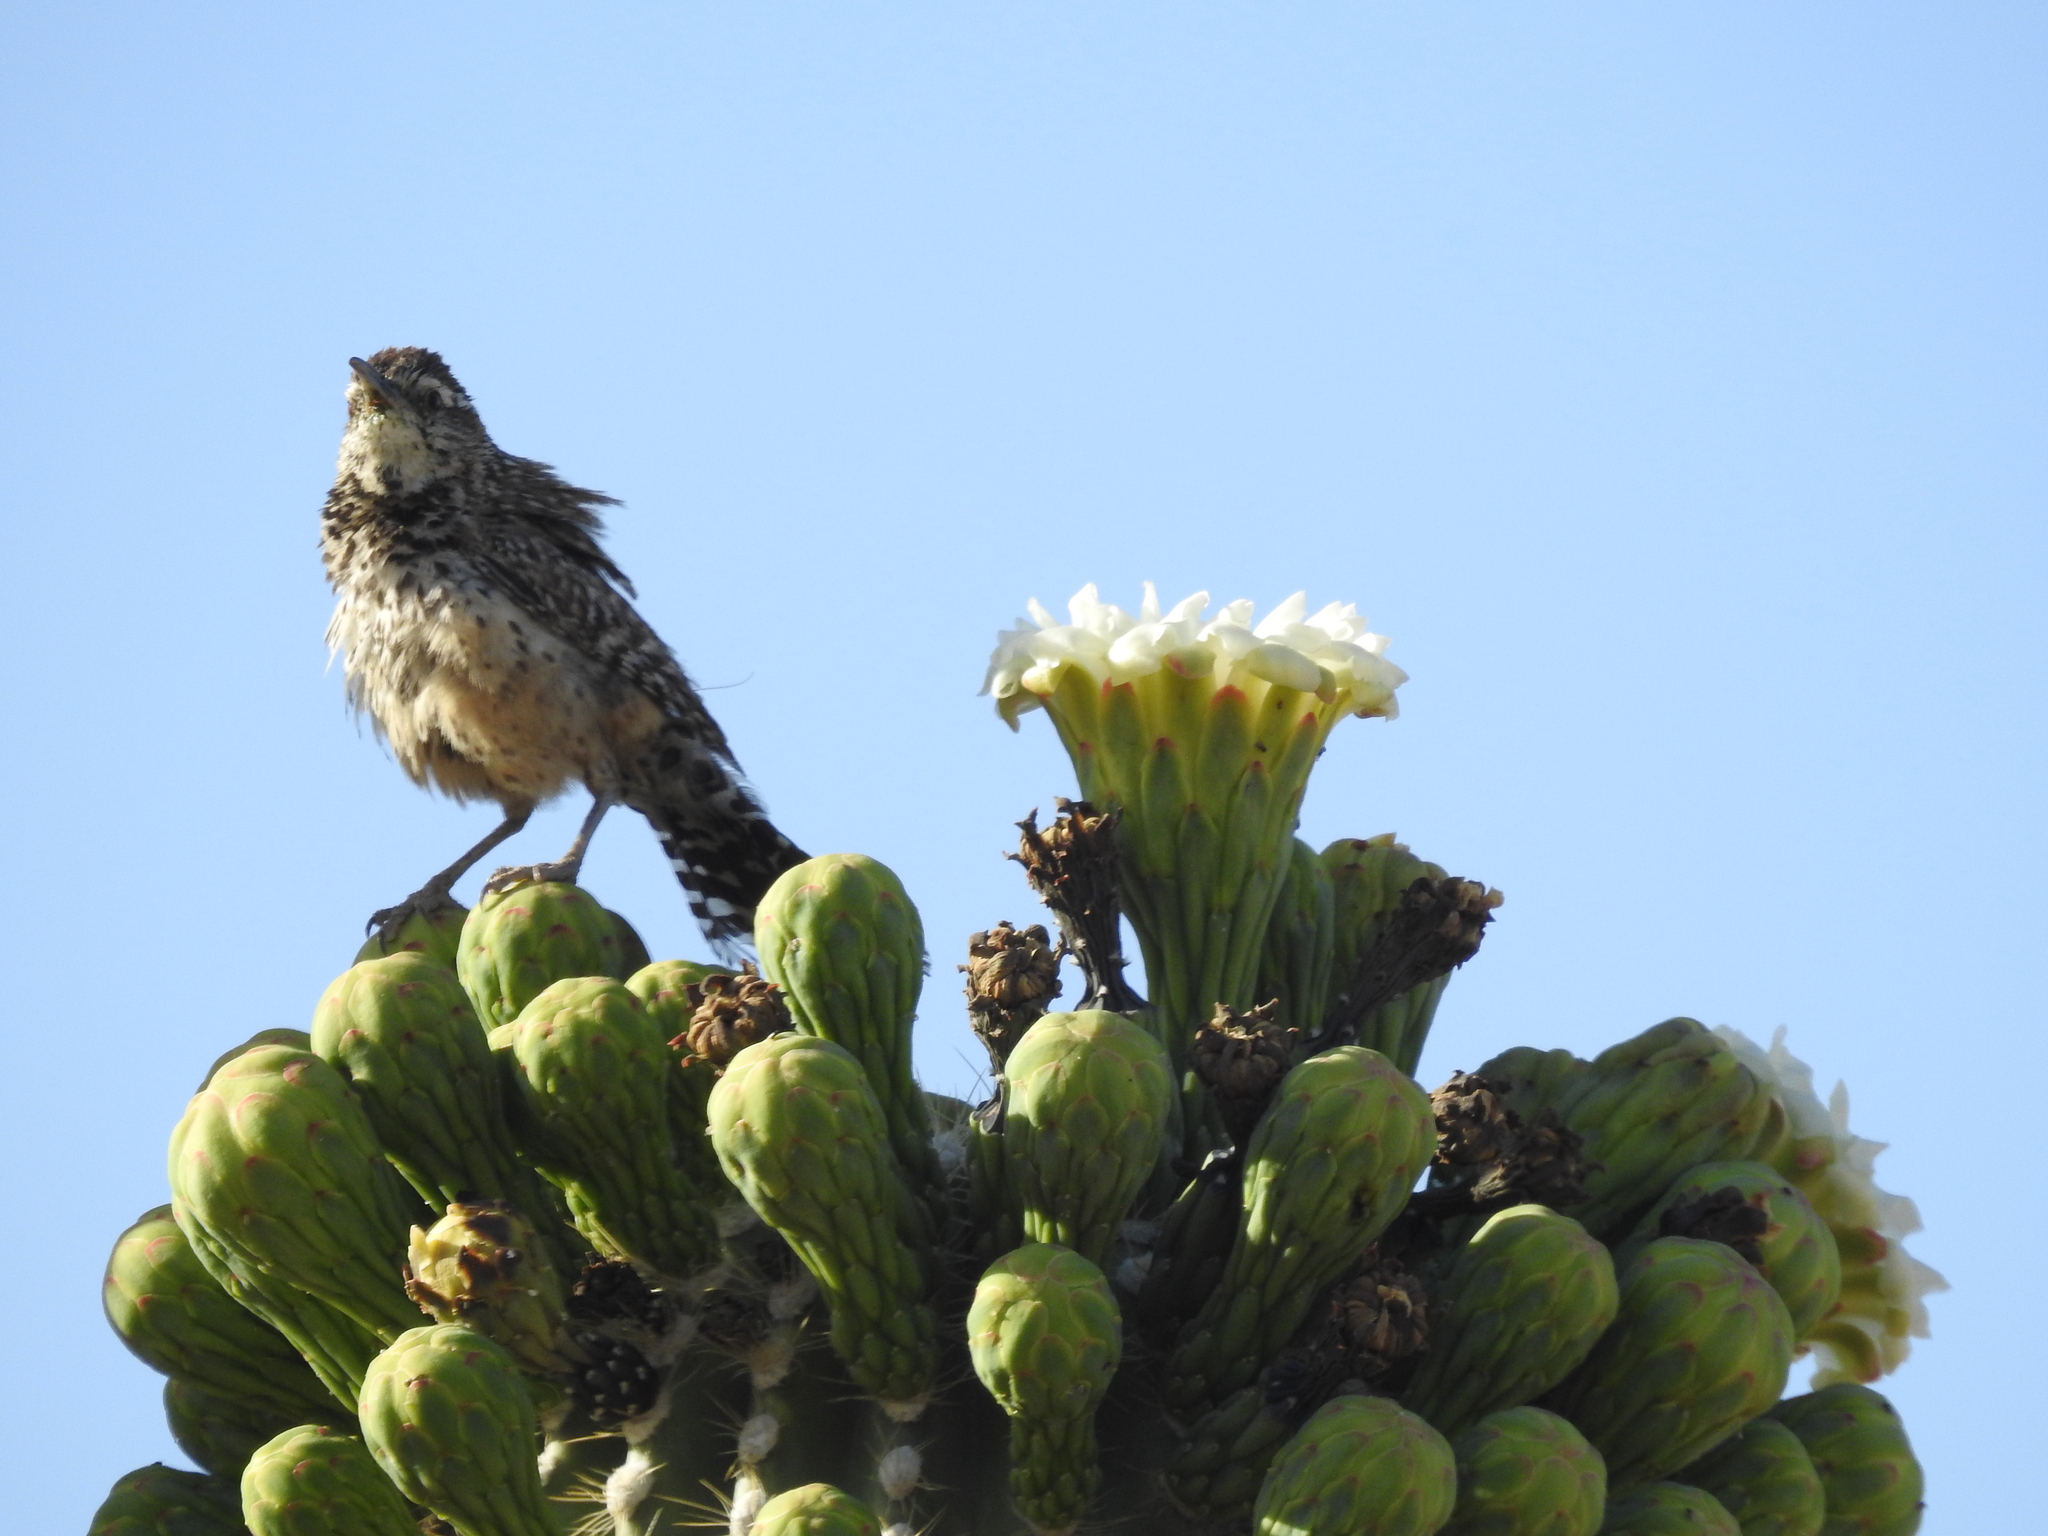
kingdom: Animalia
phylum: Chordata
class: Aves
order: Passeriformes
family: Troglodytidae
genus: Campylorhynchus
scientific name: Campylorhynchus brunneicapillus
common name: Cactus wren
